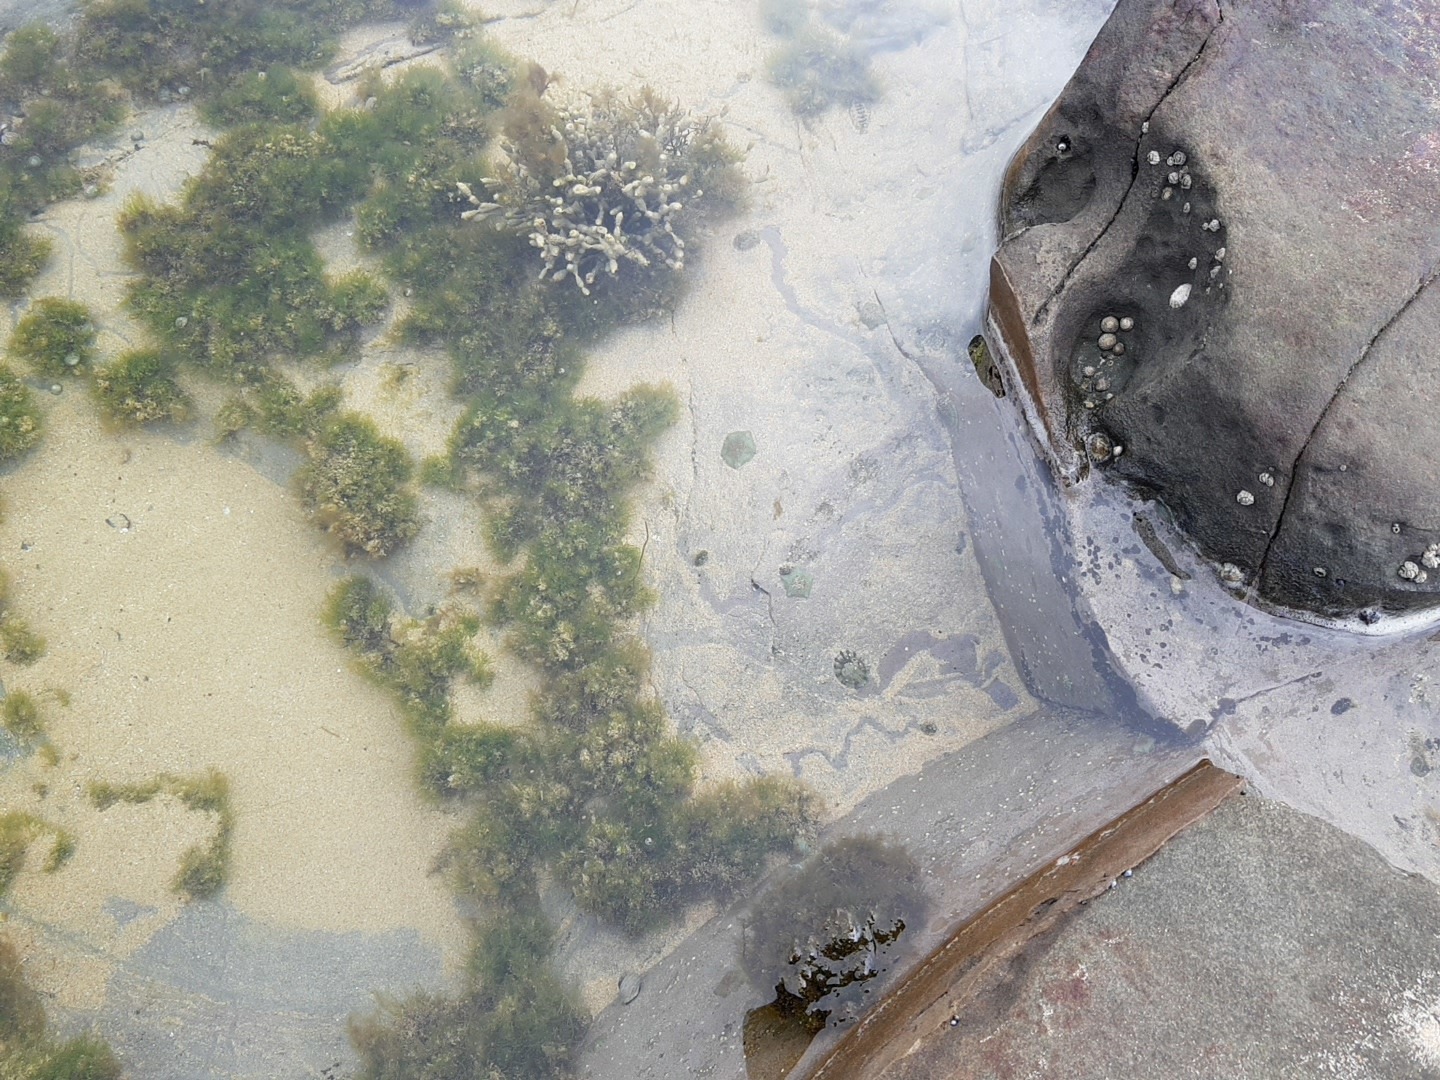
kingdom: Animalia
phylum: Echinodermata
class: Asteroidea
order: Valvatida
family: Asterinidae
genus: Parvulastra
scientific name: Parvulastra exigua
